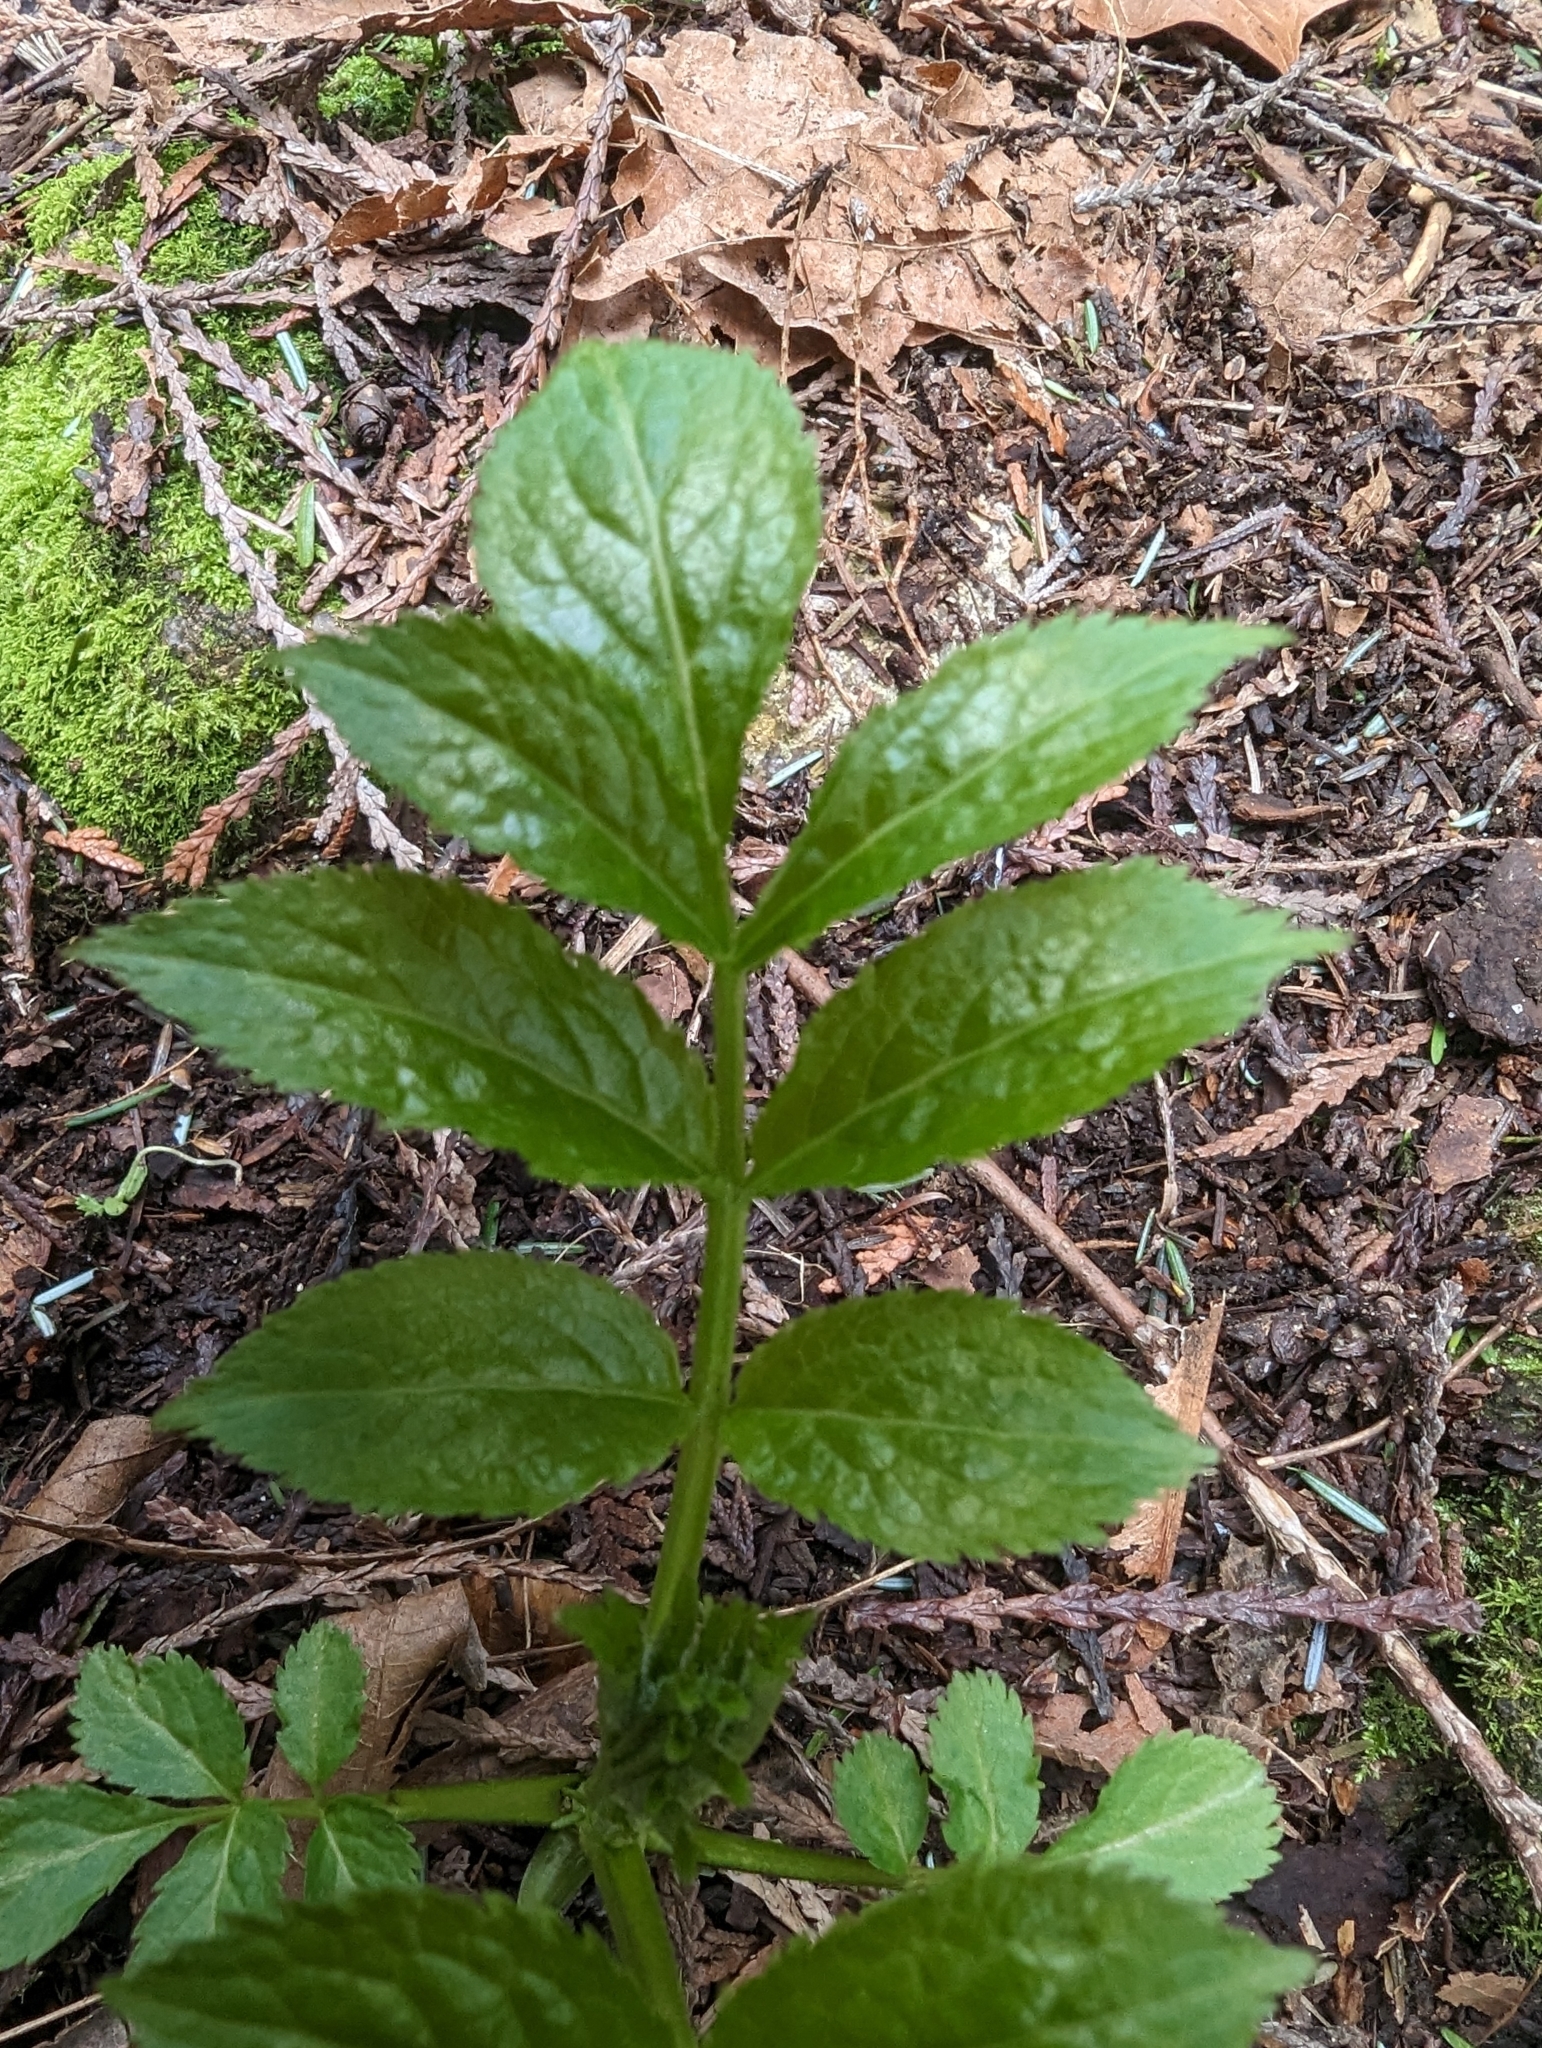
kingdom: Plantae
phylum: Tracheophyta
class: Magnoliopsida
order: Dipsacales
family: Viburnaceae
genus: Sambucus
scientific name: Sambucus racemosa
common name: Red-berried elder
